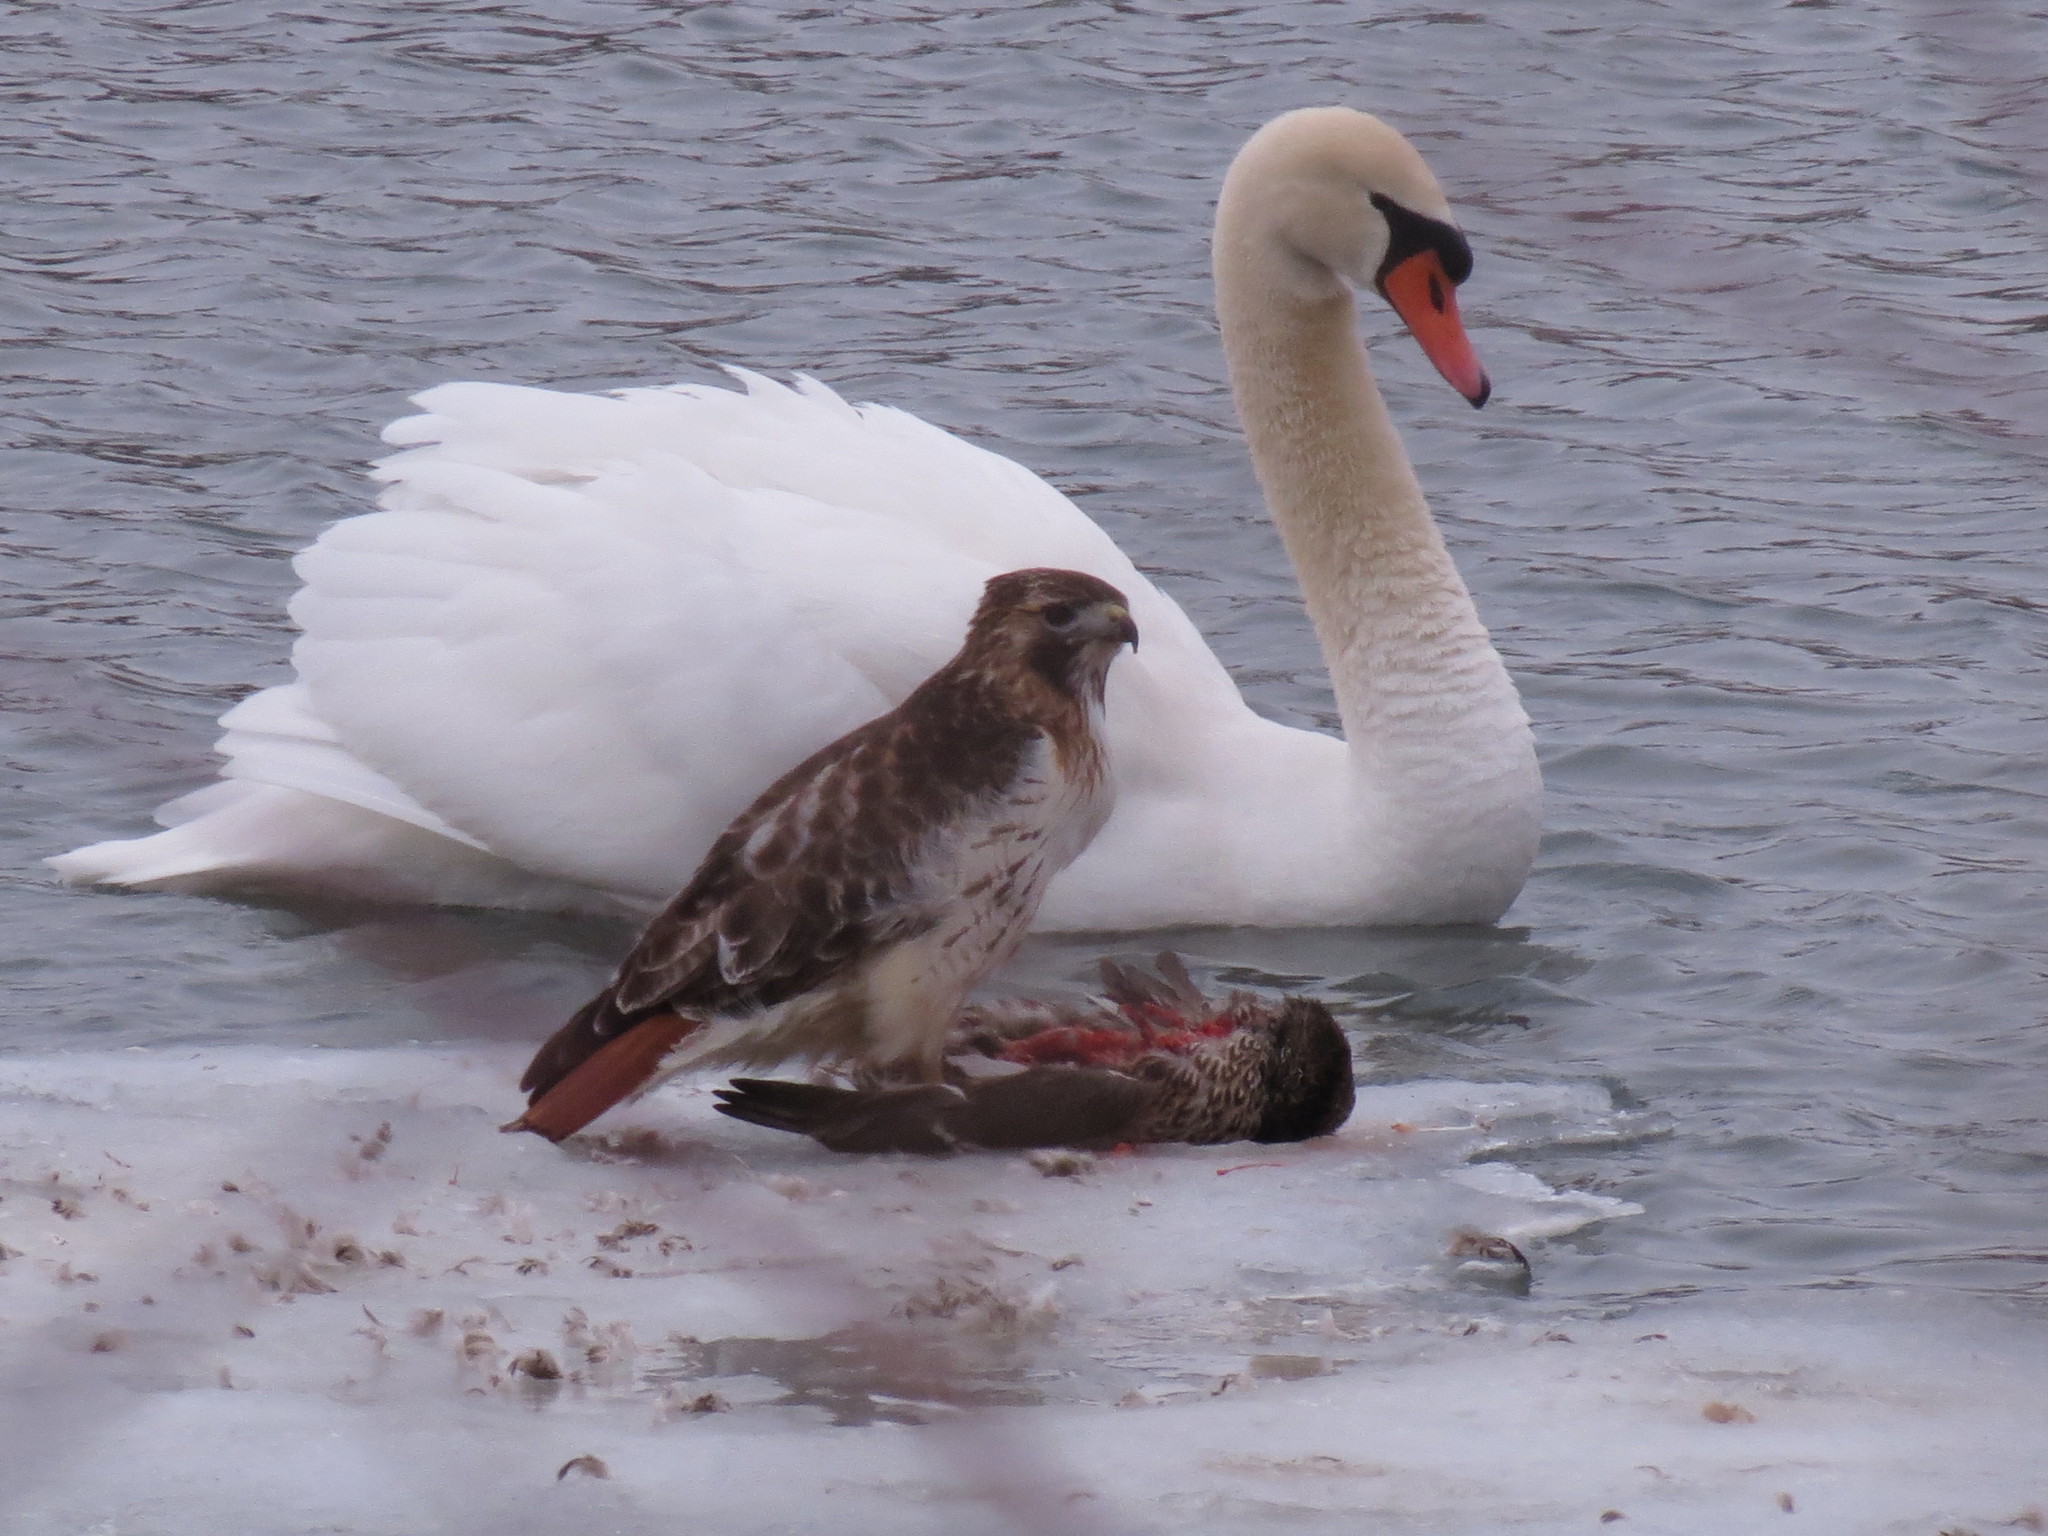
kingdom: Animalia
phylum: Chordata
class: Aves
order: Accipitriformes
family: Accipitridae
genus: Buteo
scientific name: Buteo jamaicensis
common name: Red-tailed hawk
